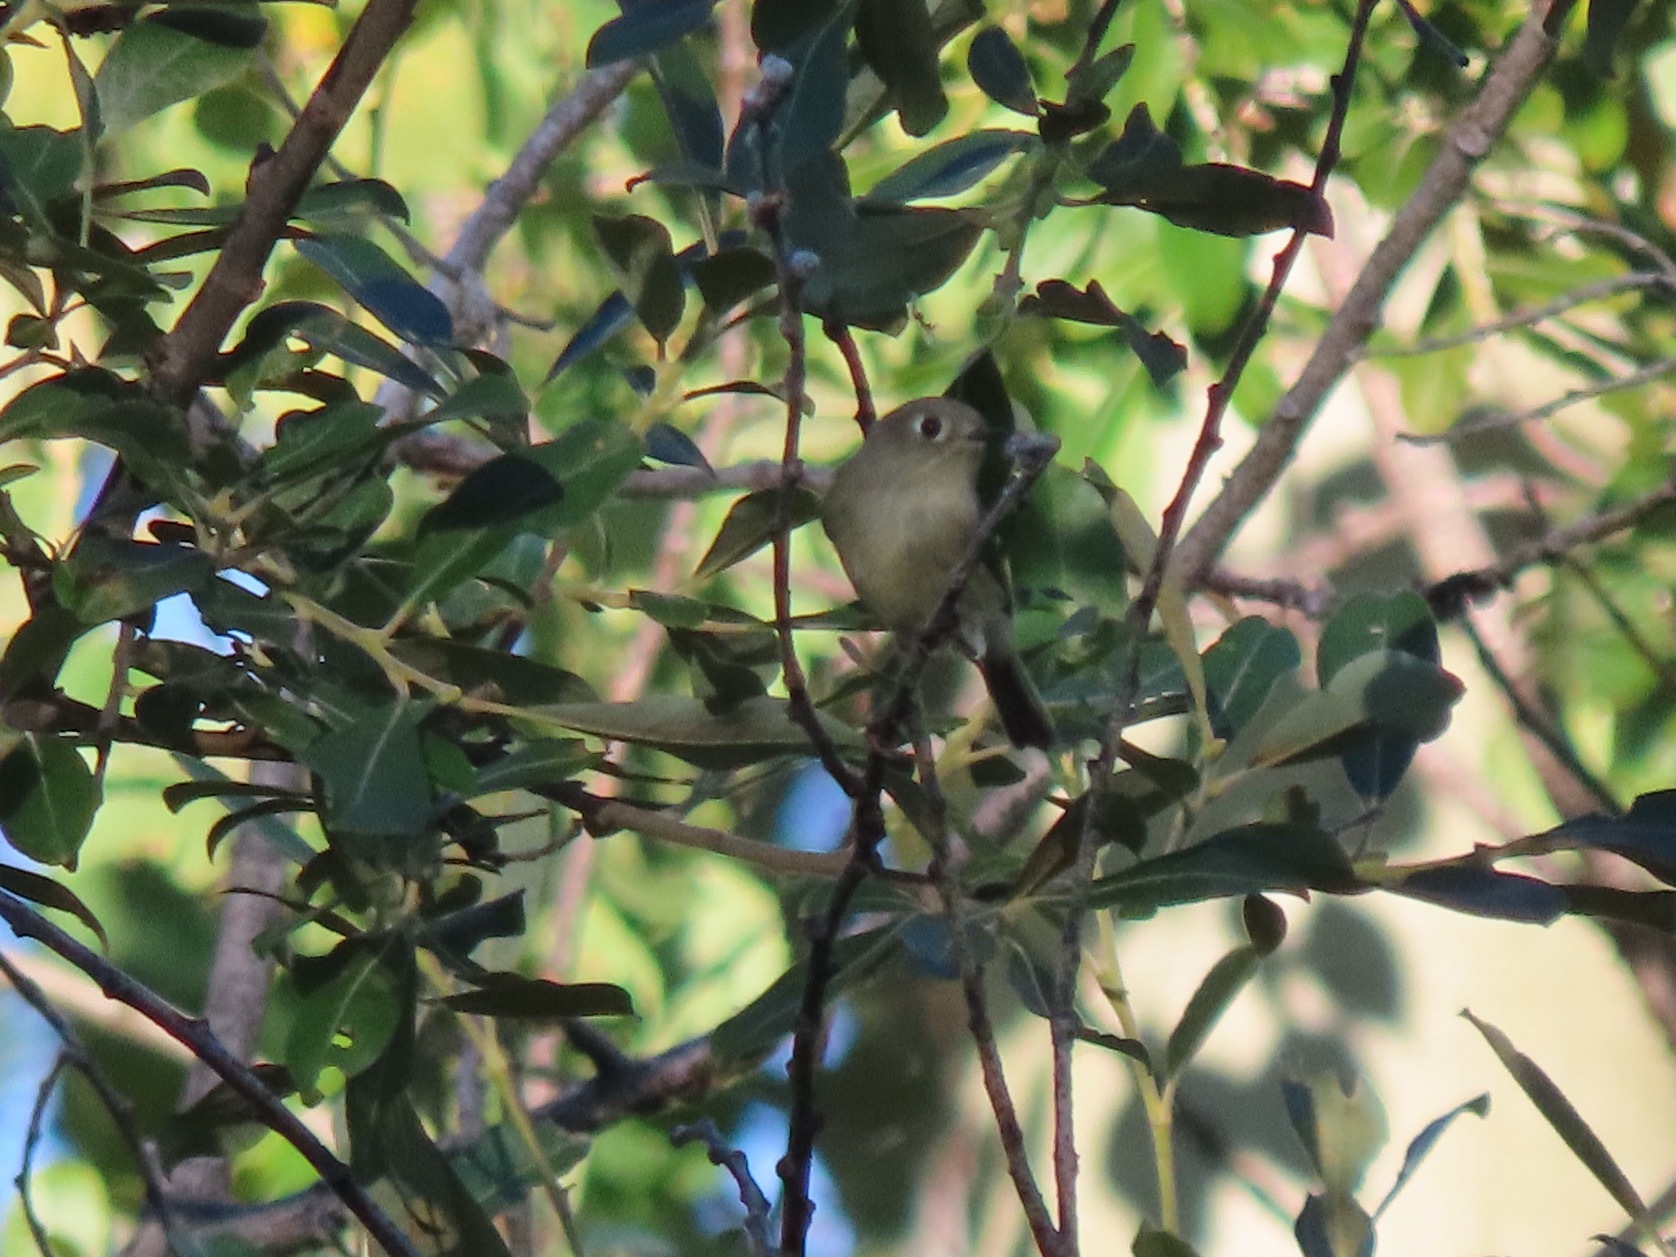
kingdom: Animalia
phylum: Chordata
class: Aves
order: Passeriformes
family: Regulidae
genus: Regulus
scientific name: Regulus calendula
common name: Ruby-crowned kinglet
